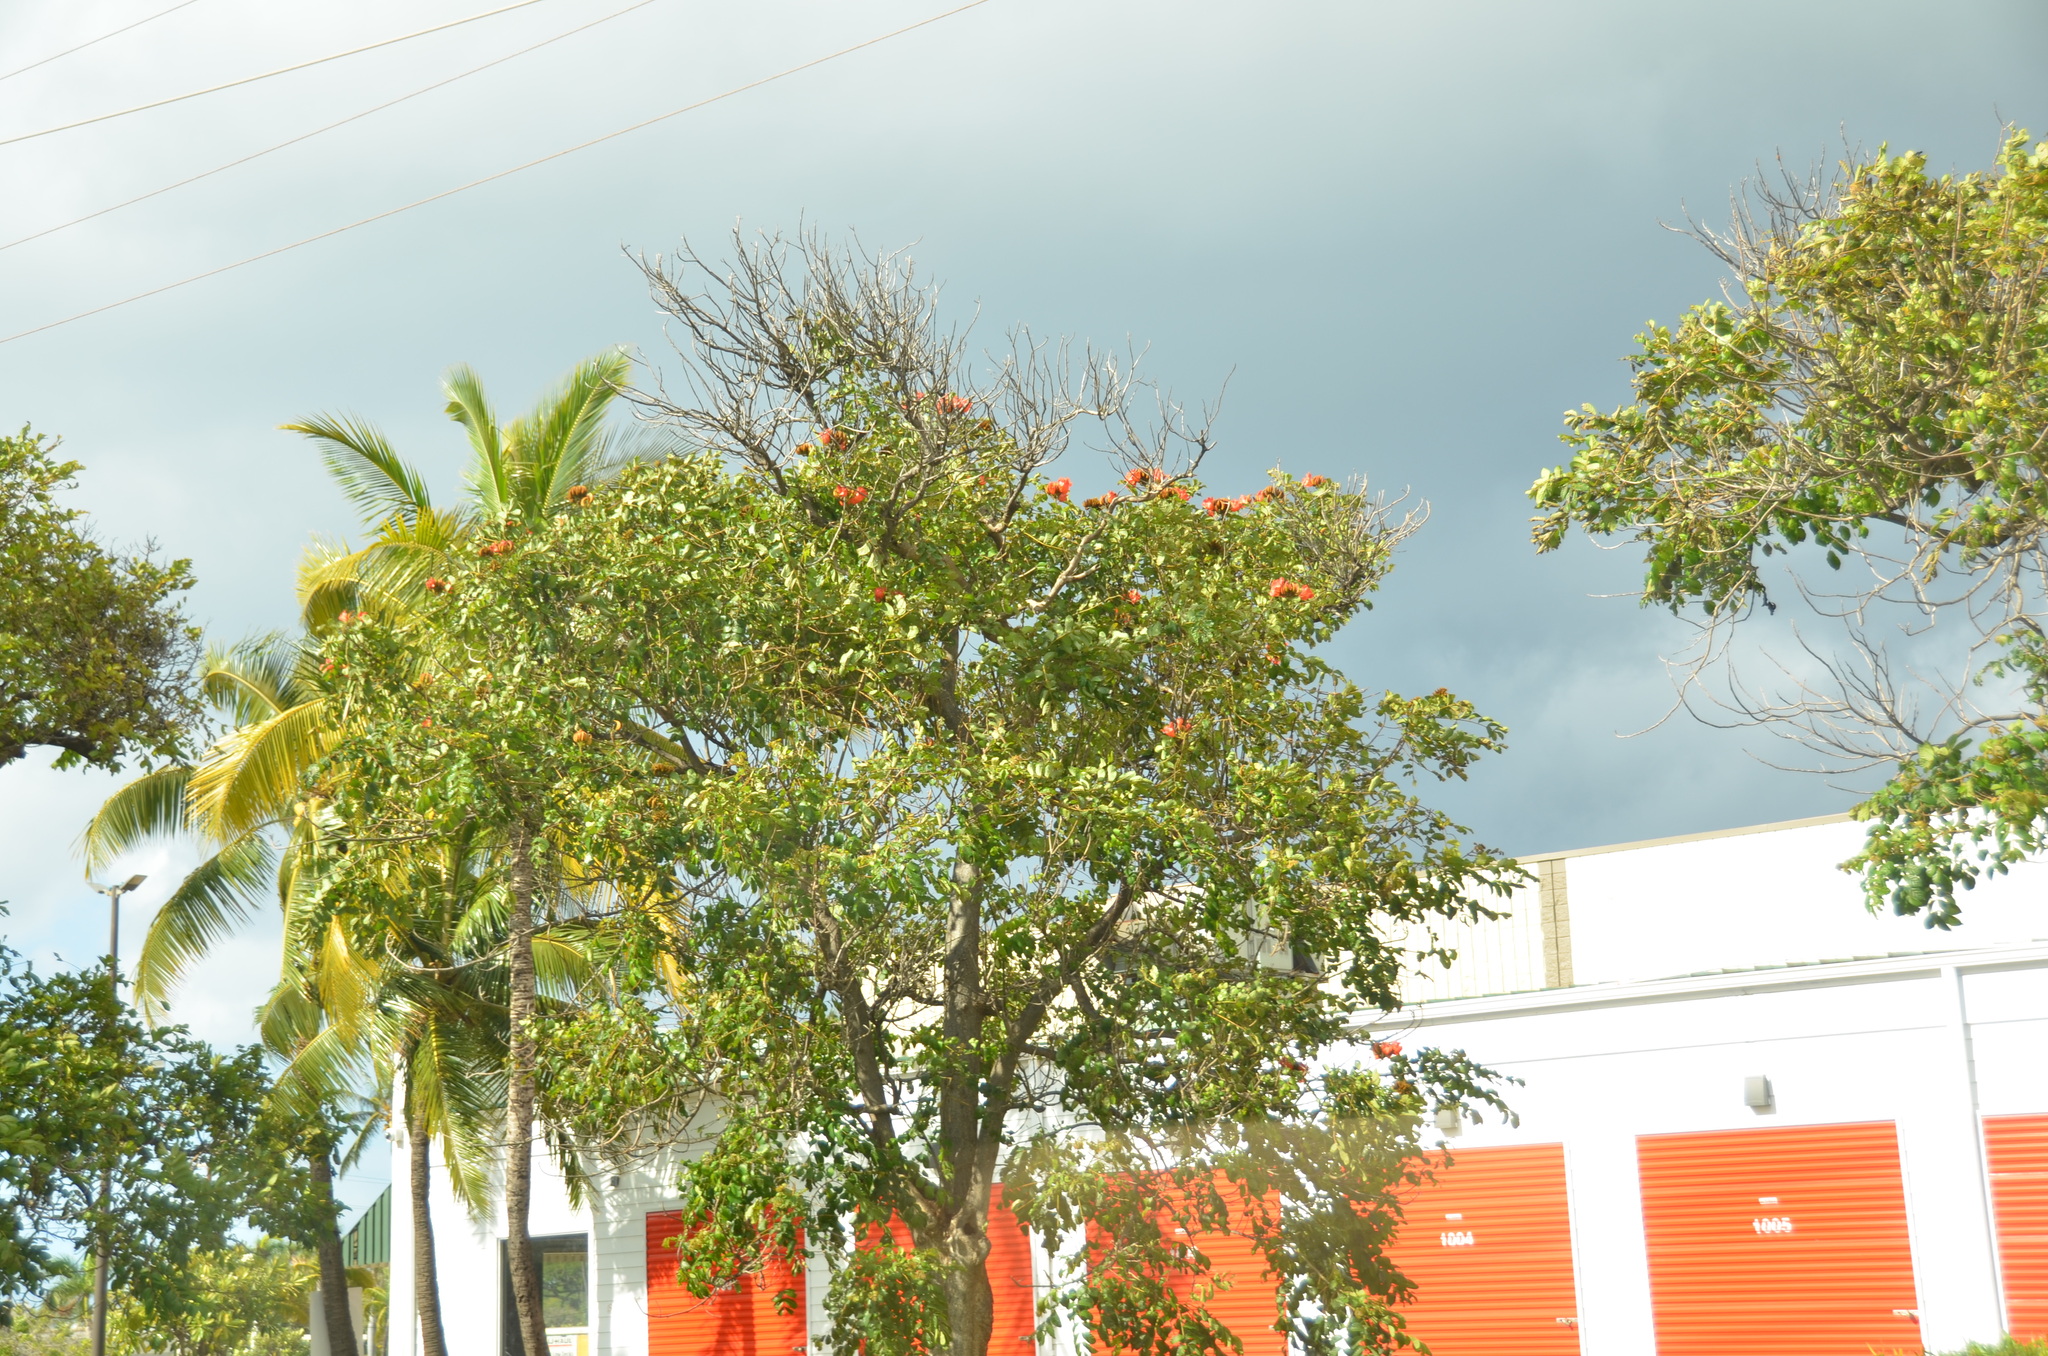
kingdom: Plantae
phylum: Tracheophyta
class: Magnoliopsida
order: Lamiales
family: Bignoniaceae
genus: Spathodea
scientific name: Spathodea campanulata
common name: African tuliptree
